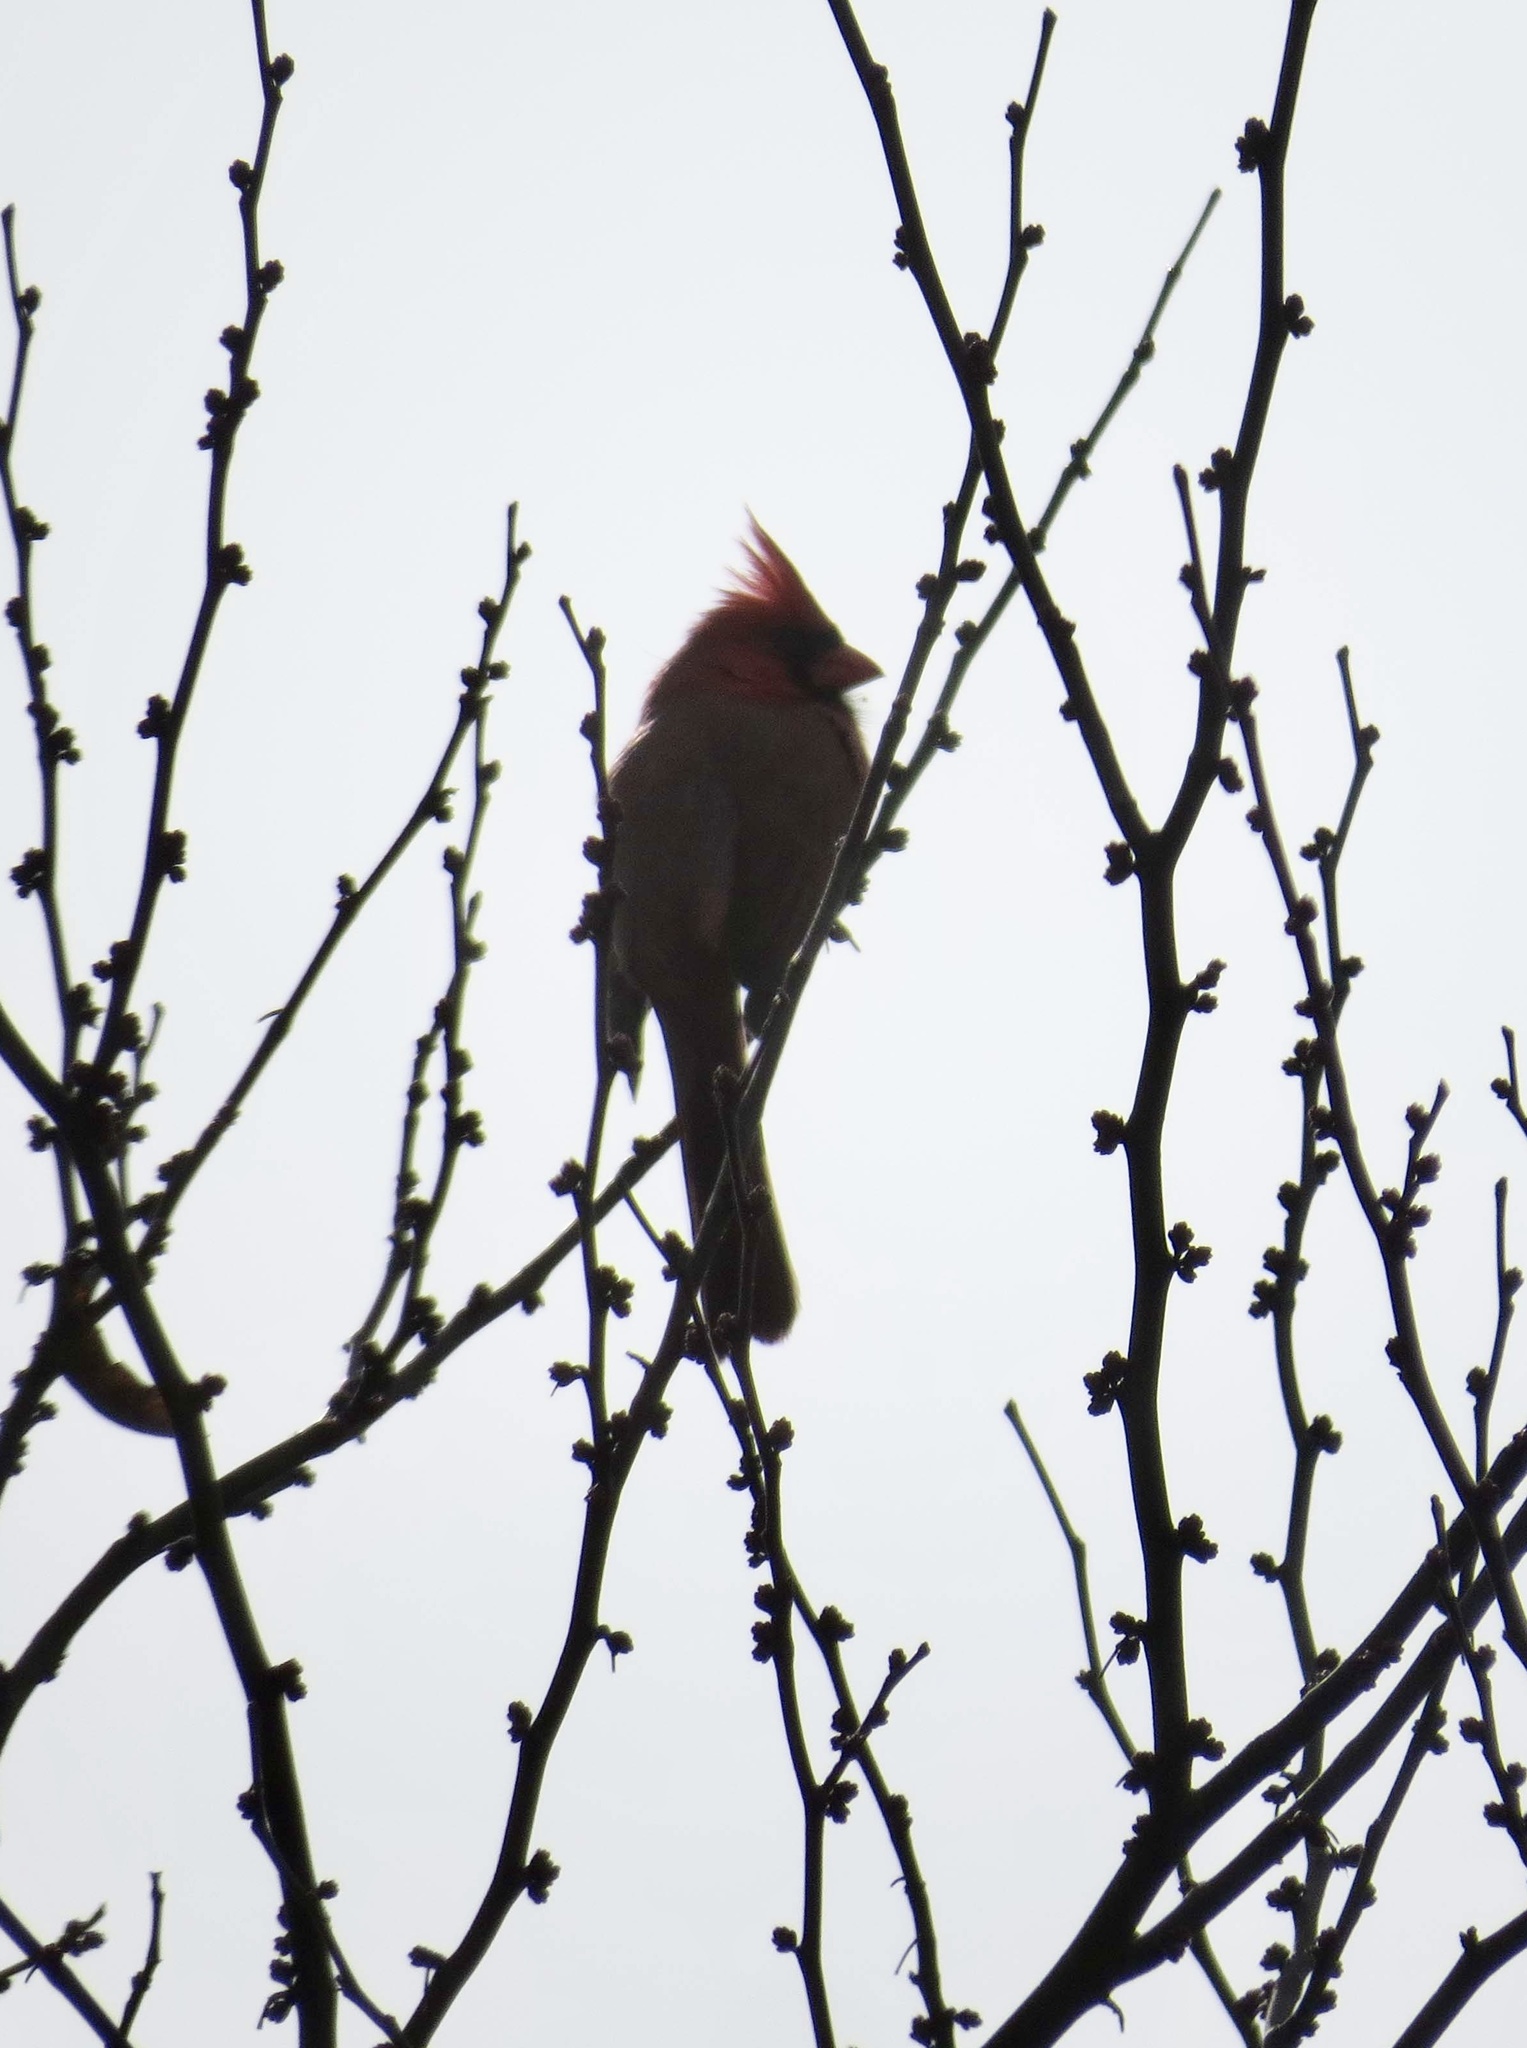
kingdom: Animalia
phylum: Chordata
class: Aves
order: Passeriformes
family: Cardinalidae
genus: Cardinalis
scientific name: Cardinalis cardinalis
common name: Northern cardinal
